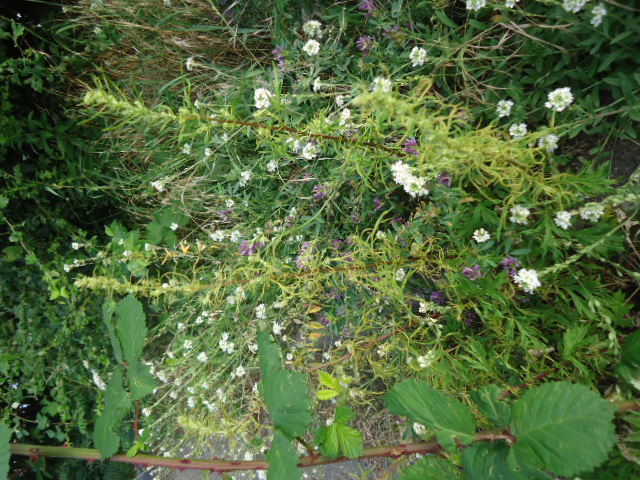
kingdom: Plantae
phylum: Tracheophyta
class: Magnoliopsida
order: Brassicales
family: Brassicaceae
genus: Berteroa
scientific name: Berteroa incana
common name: Hoary alison
